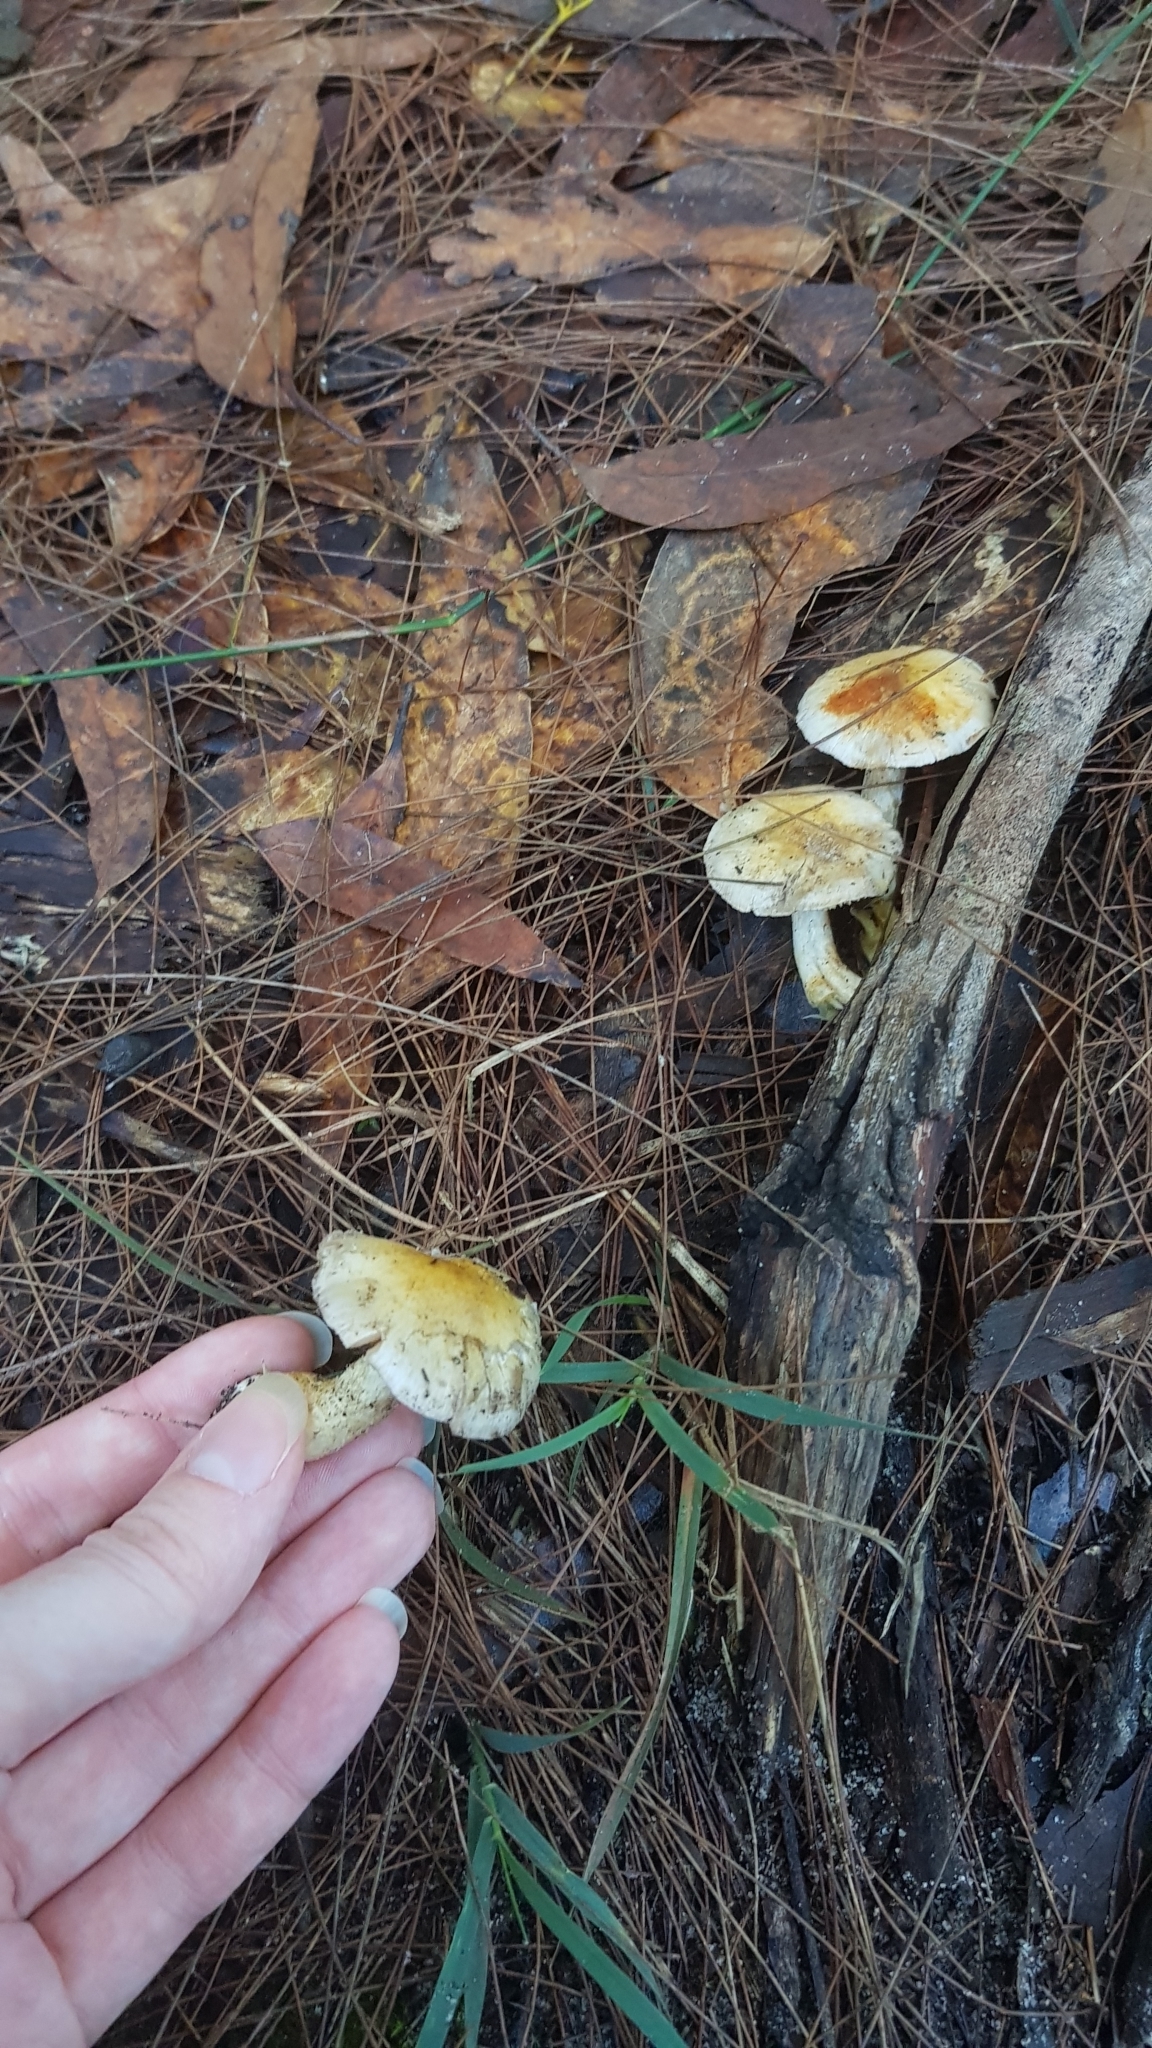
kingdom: Fungi
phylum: Basidiomycota
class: Agaricomycetes
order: Agaricales
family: Cortinariaceae
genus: Cortinarius
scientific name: Cortinarius rotundisporus
